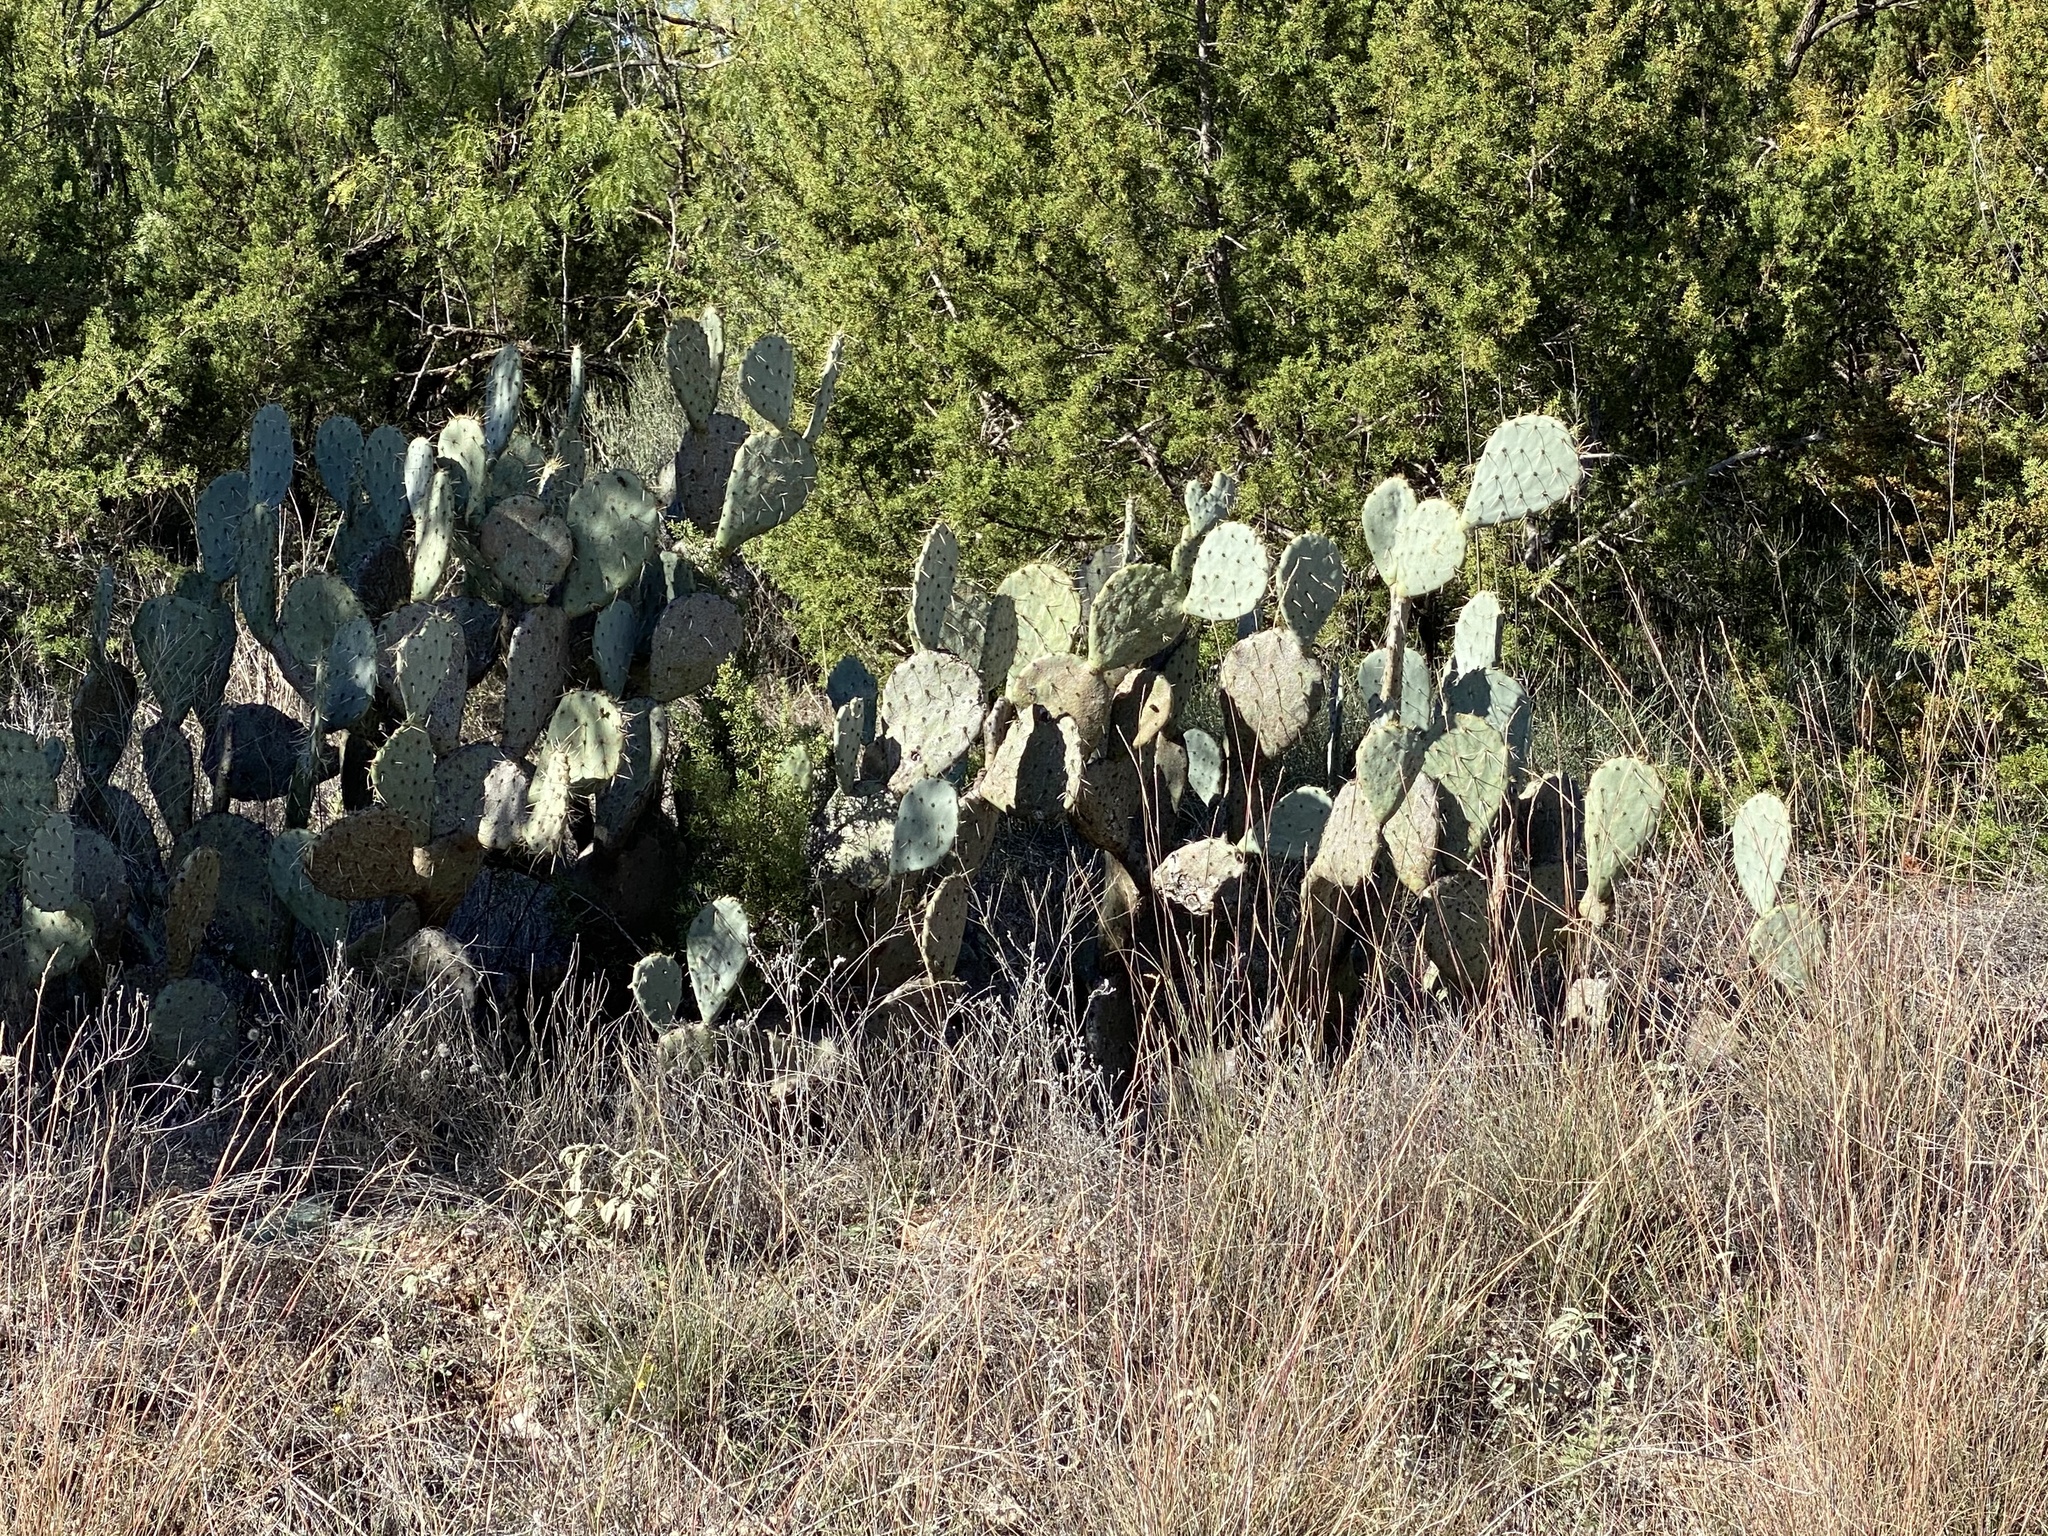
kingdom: Plantae
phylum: Tracheophyta
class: Magnoliopsida
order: Caryophyllales
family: Cactaceae
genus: Opuntia
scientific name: Opuntia engelmannii
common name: Cactus-apple
